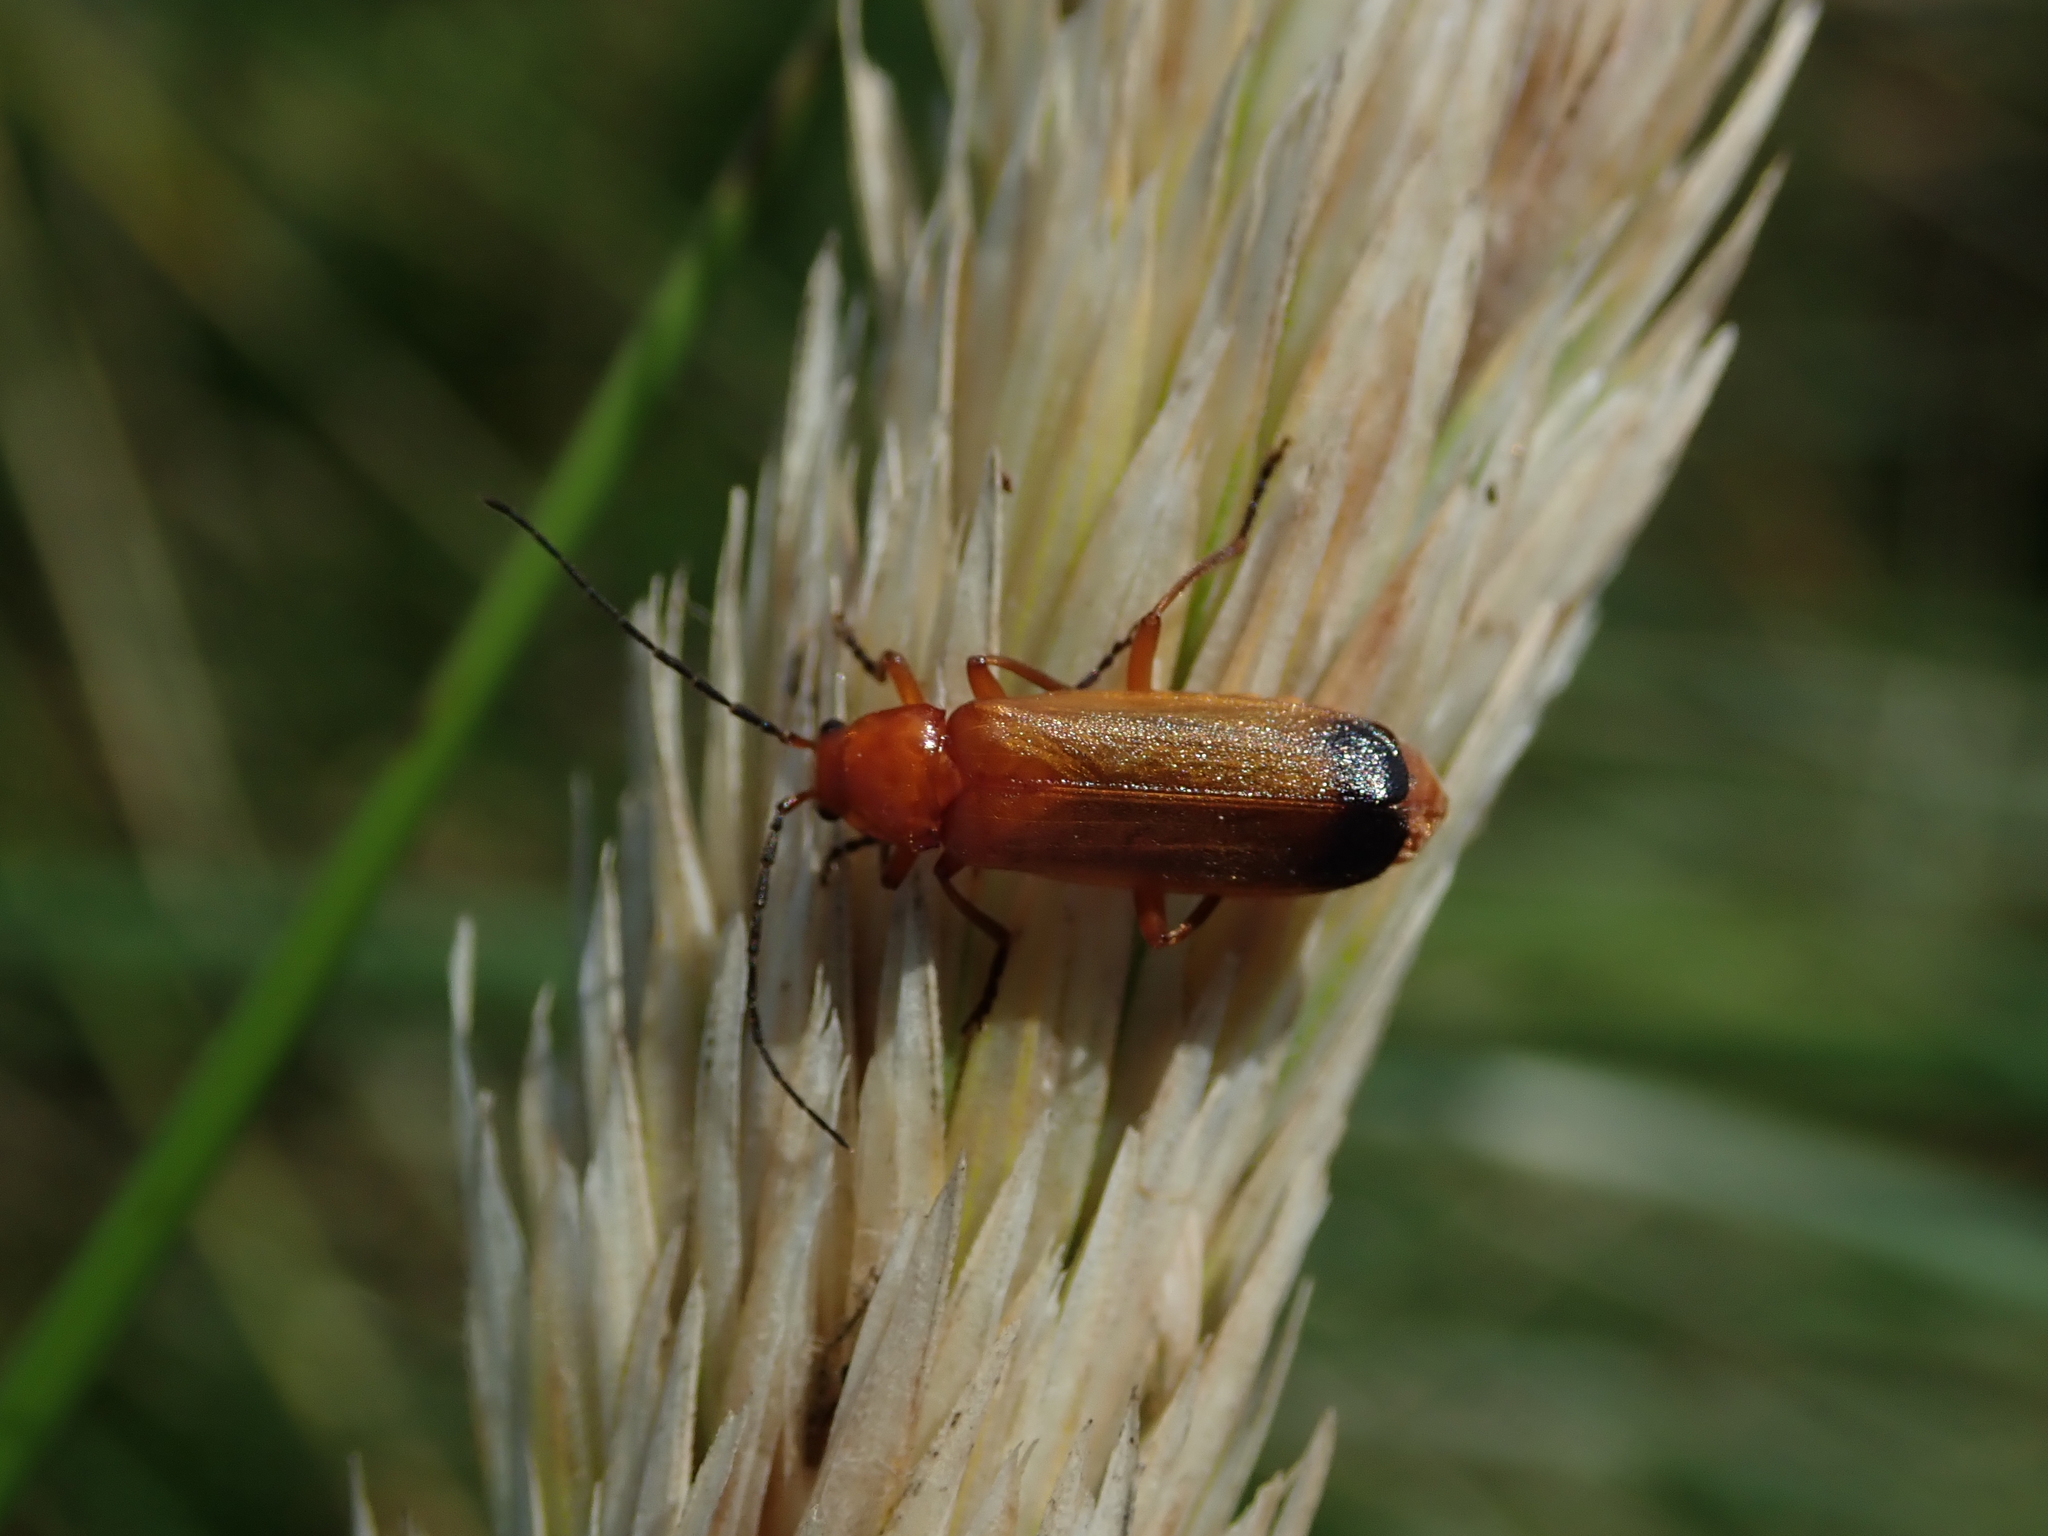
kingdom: Animalia
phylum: Arthropoda
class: Insecta
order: Coleoptera
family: Cantharidae
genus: Rhagonycha
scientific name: Rhagonycha fulva
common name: Common red soldier beetle
